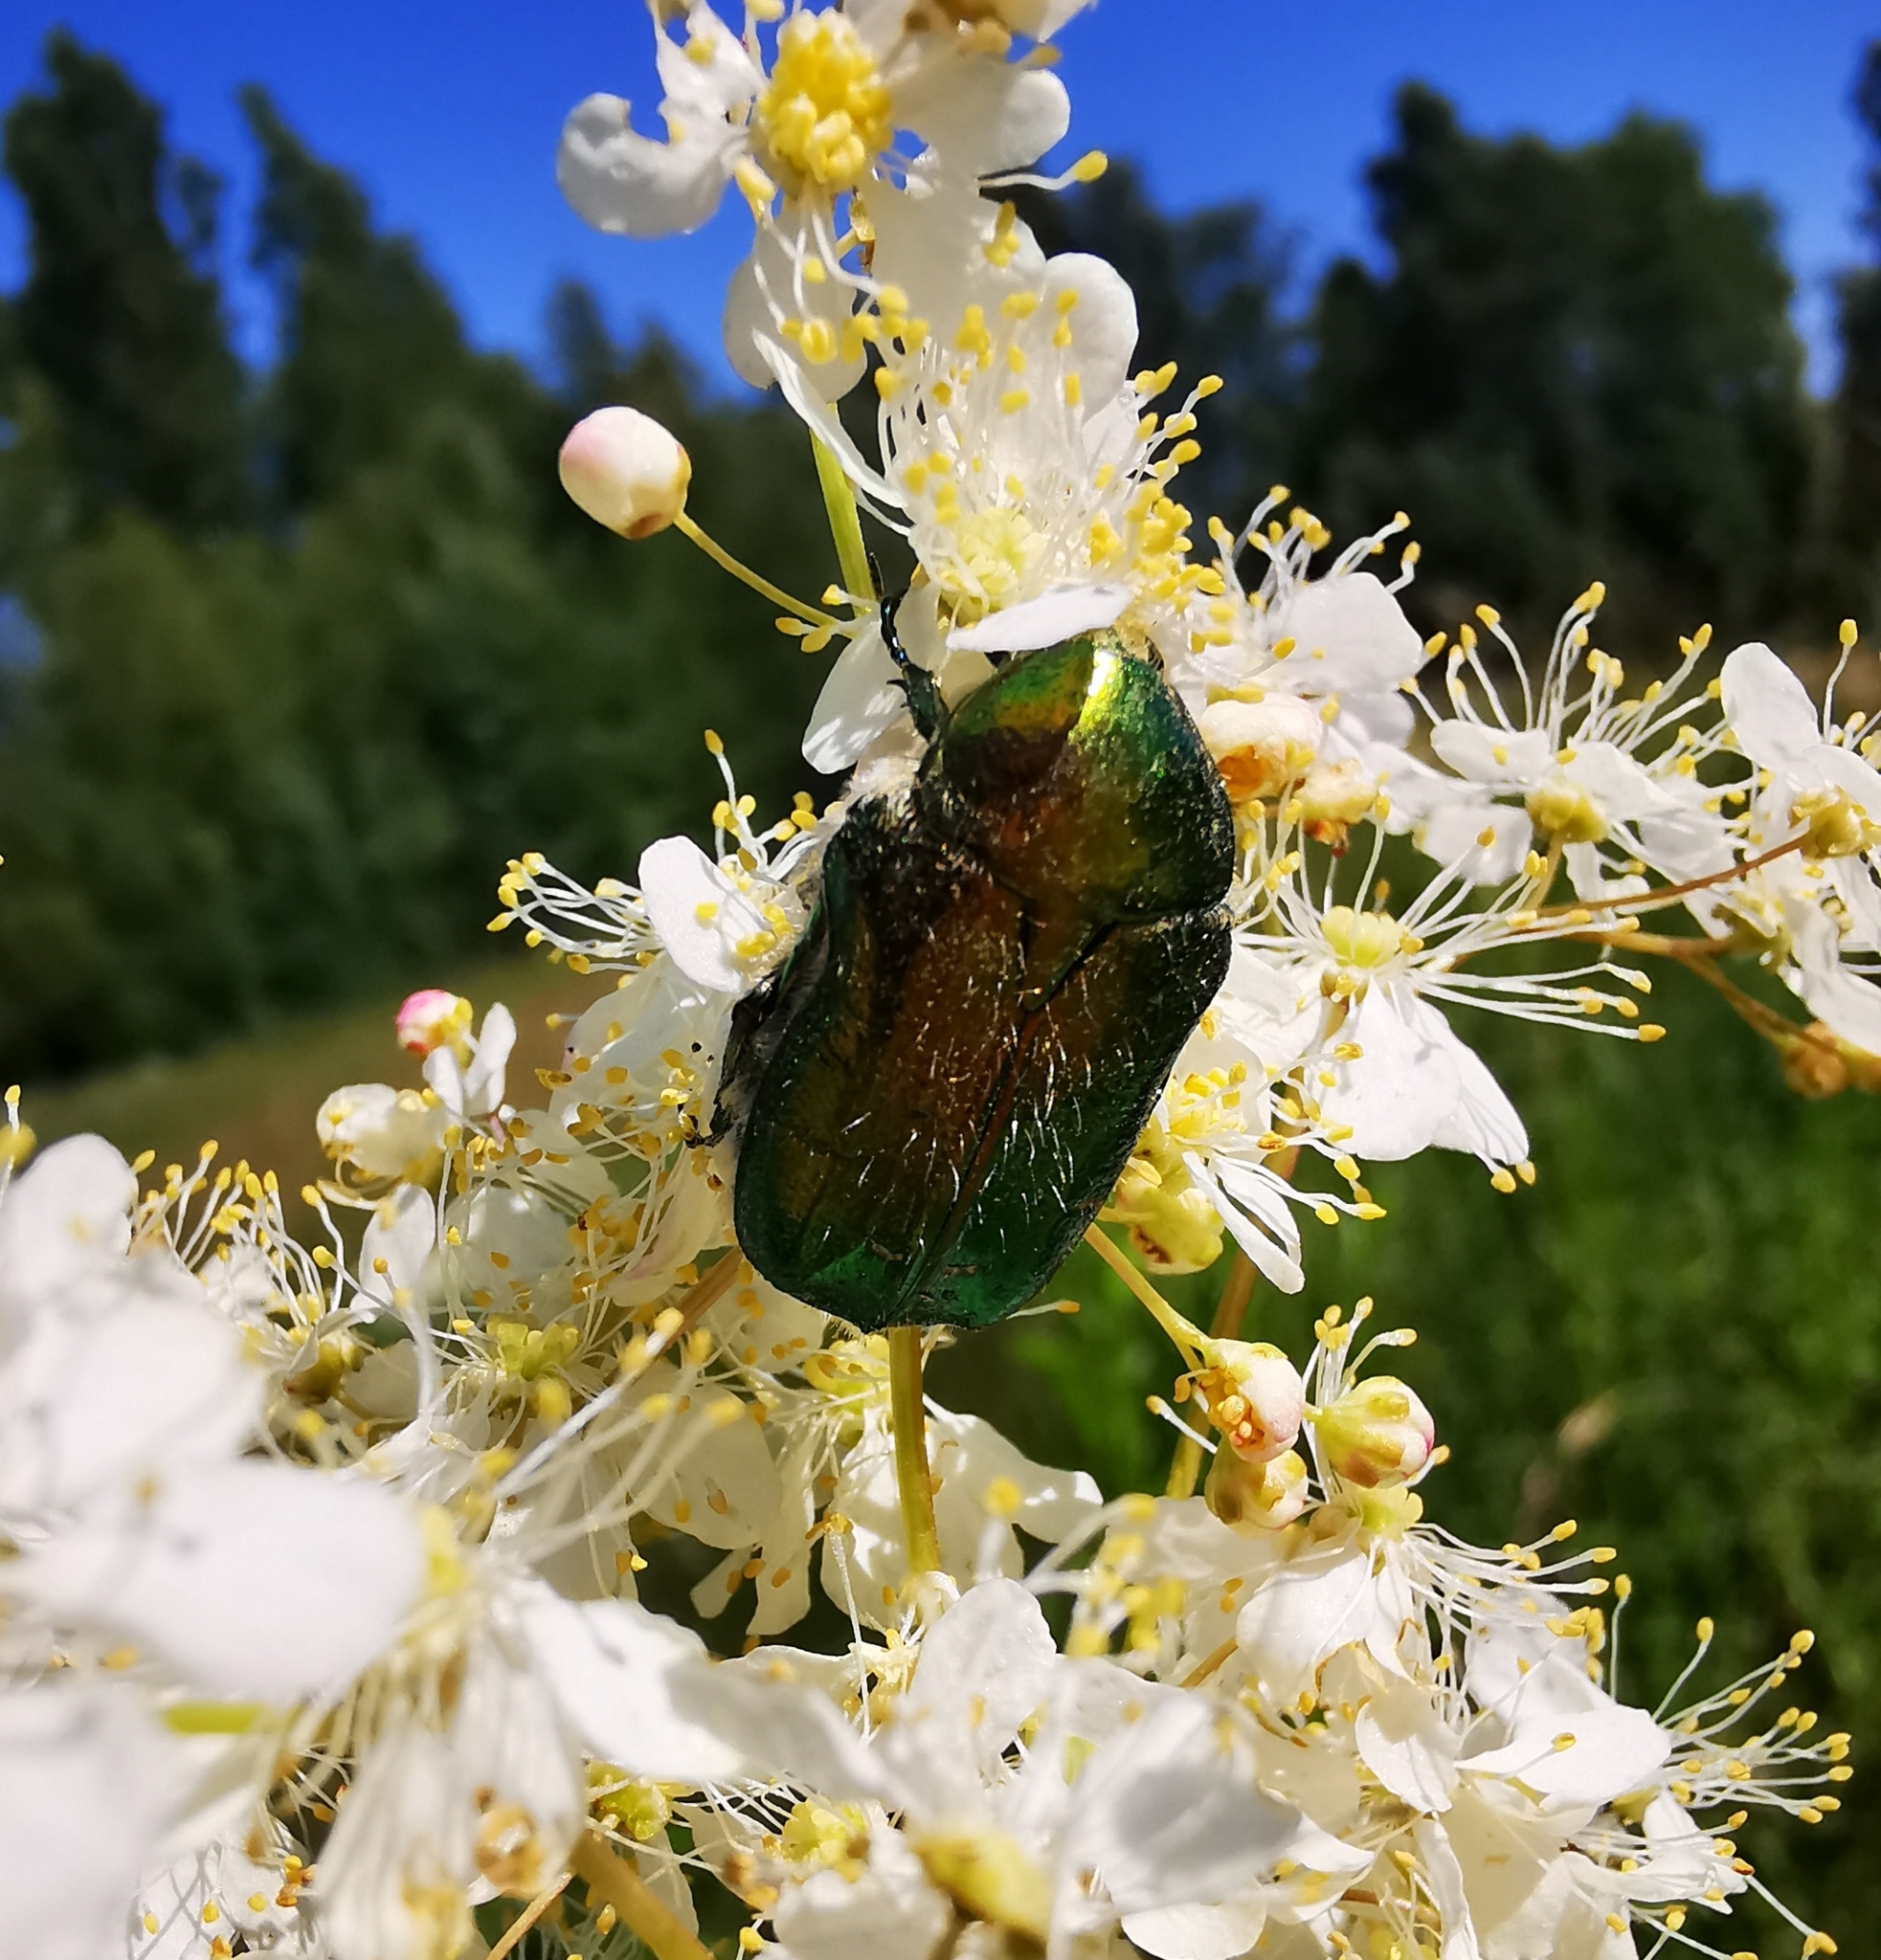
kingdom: Animalia
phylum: Arthropoda
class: Insecta
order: Coleoptera
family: Scarabaeidae
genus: Cetonia
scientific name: Cetonia aurata
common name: Rose chafer
